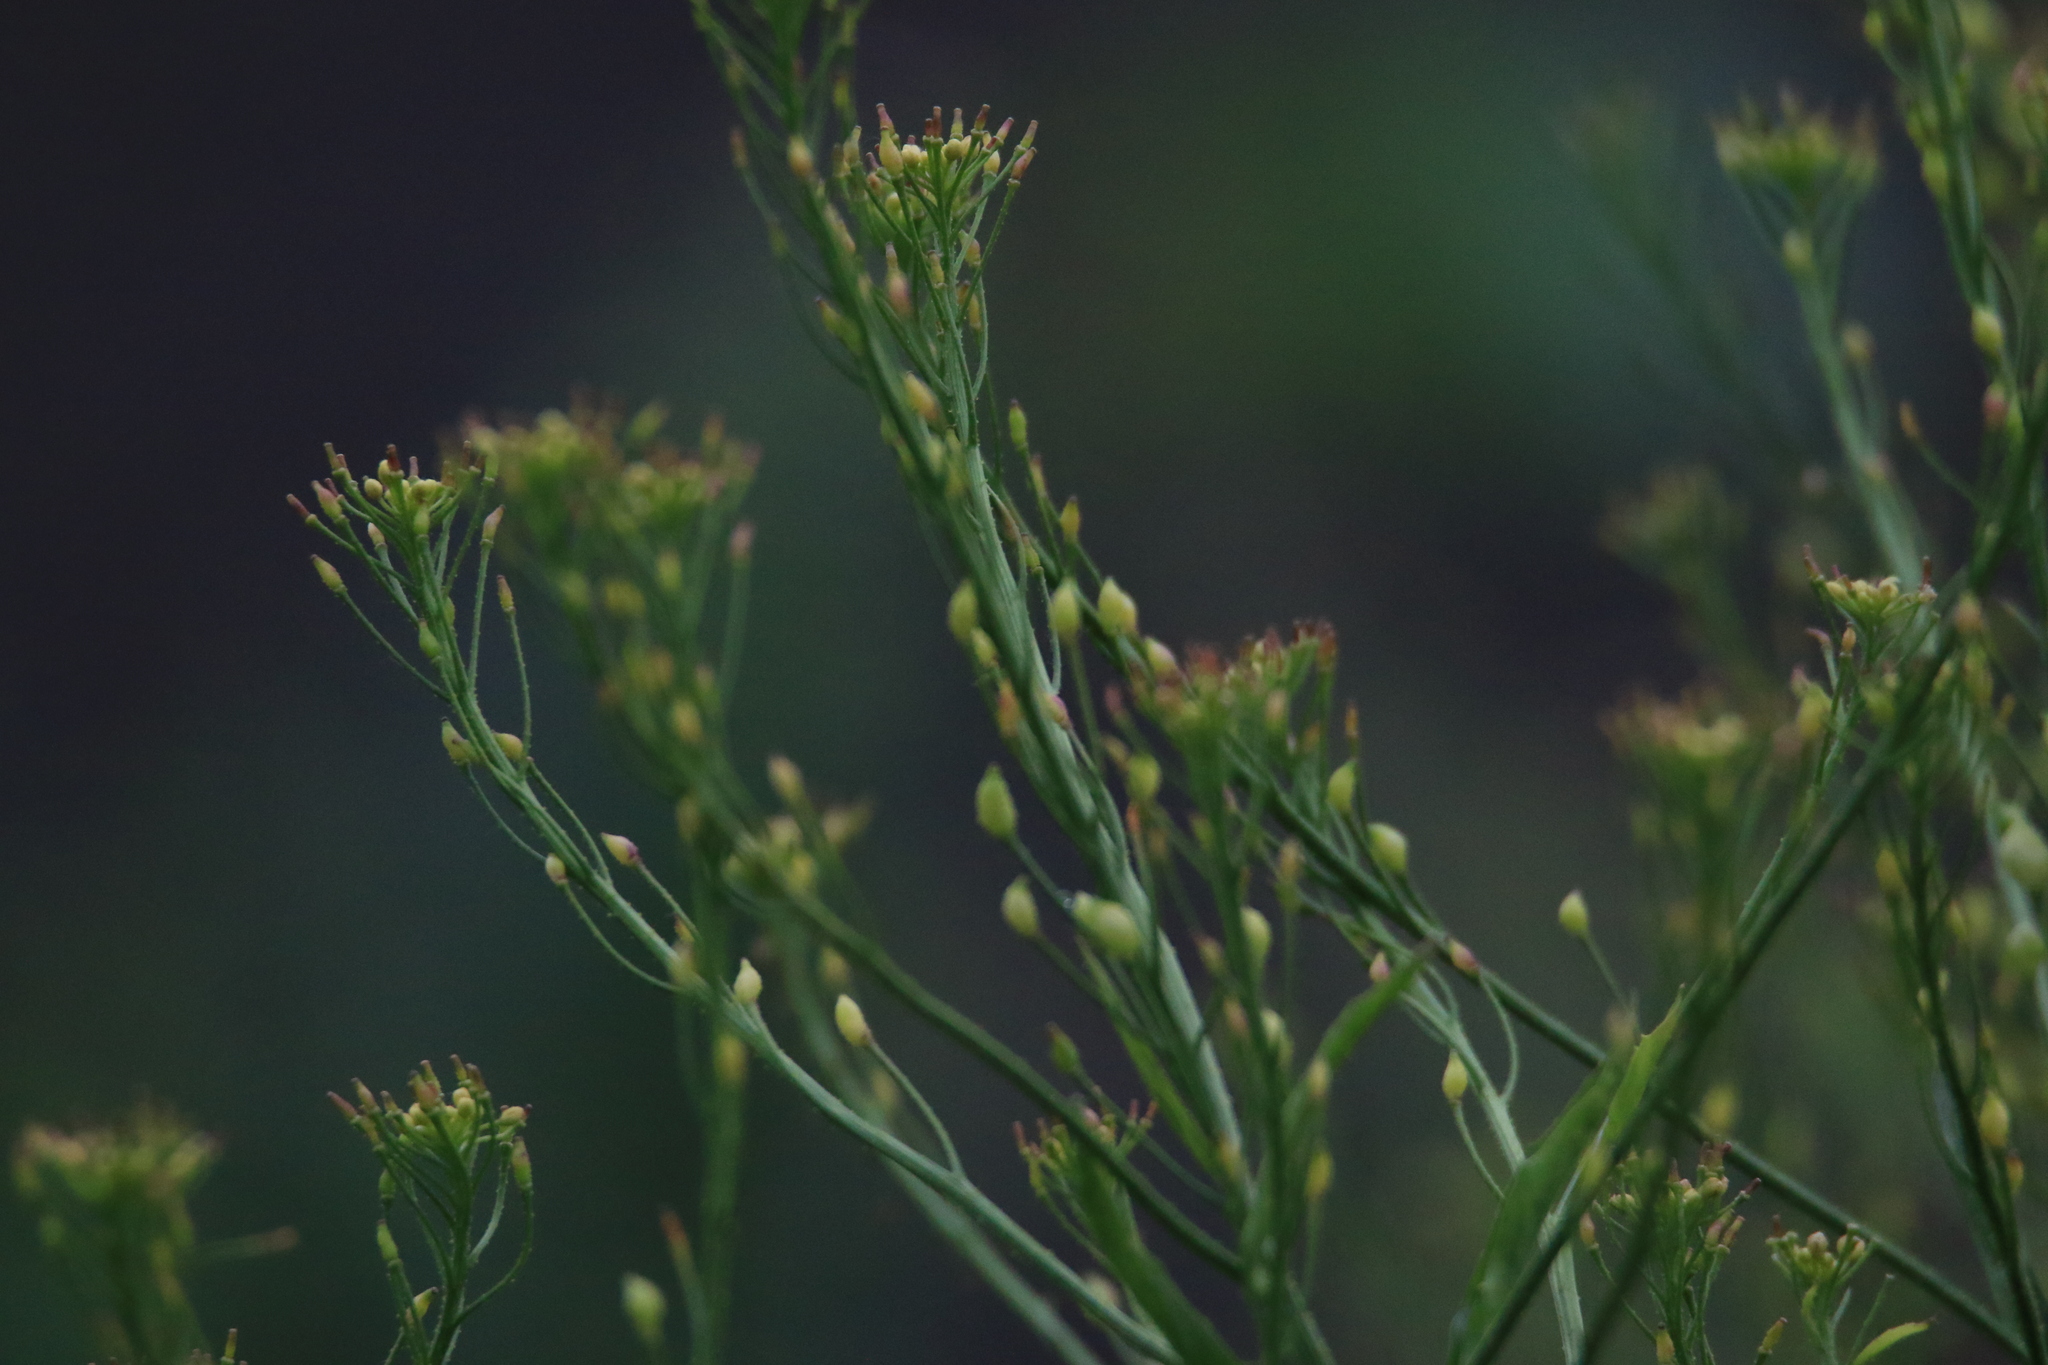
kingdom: Plantae
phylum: Tracheophyta
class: Magnoliopsida
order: Brassicales
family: Brassicaceae
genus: Bunias
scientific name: Bunias orientalis
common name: Warty-cabbage
